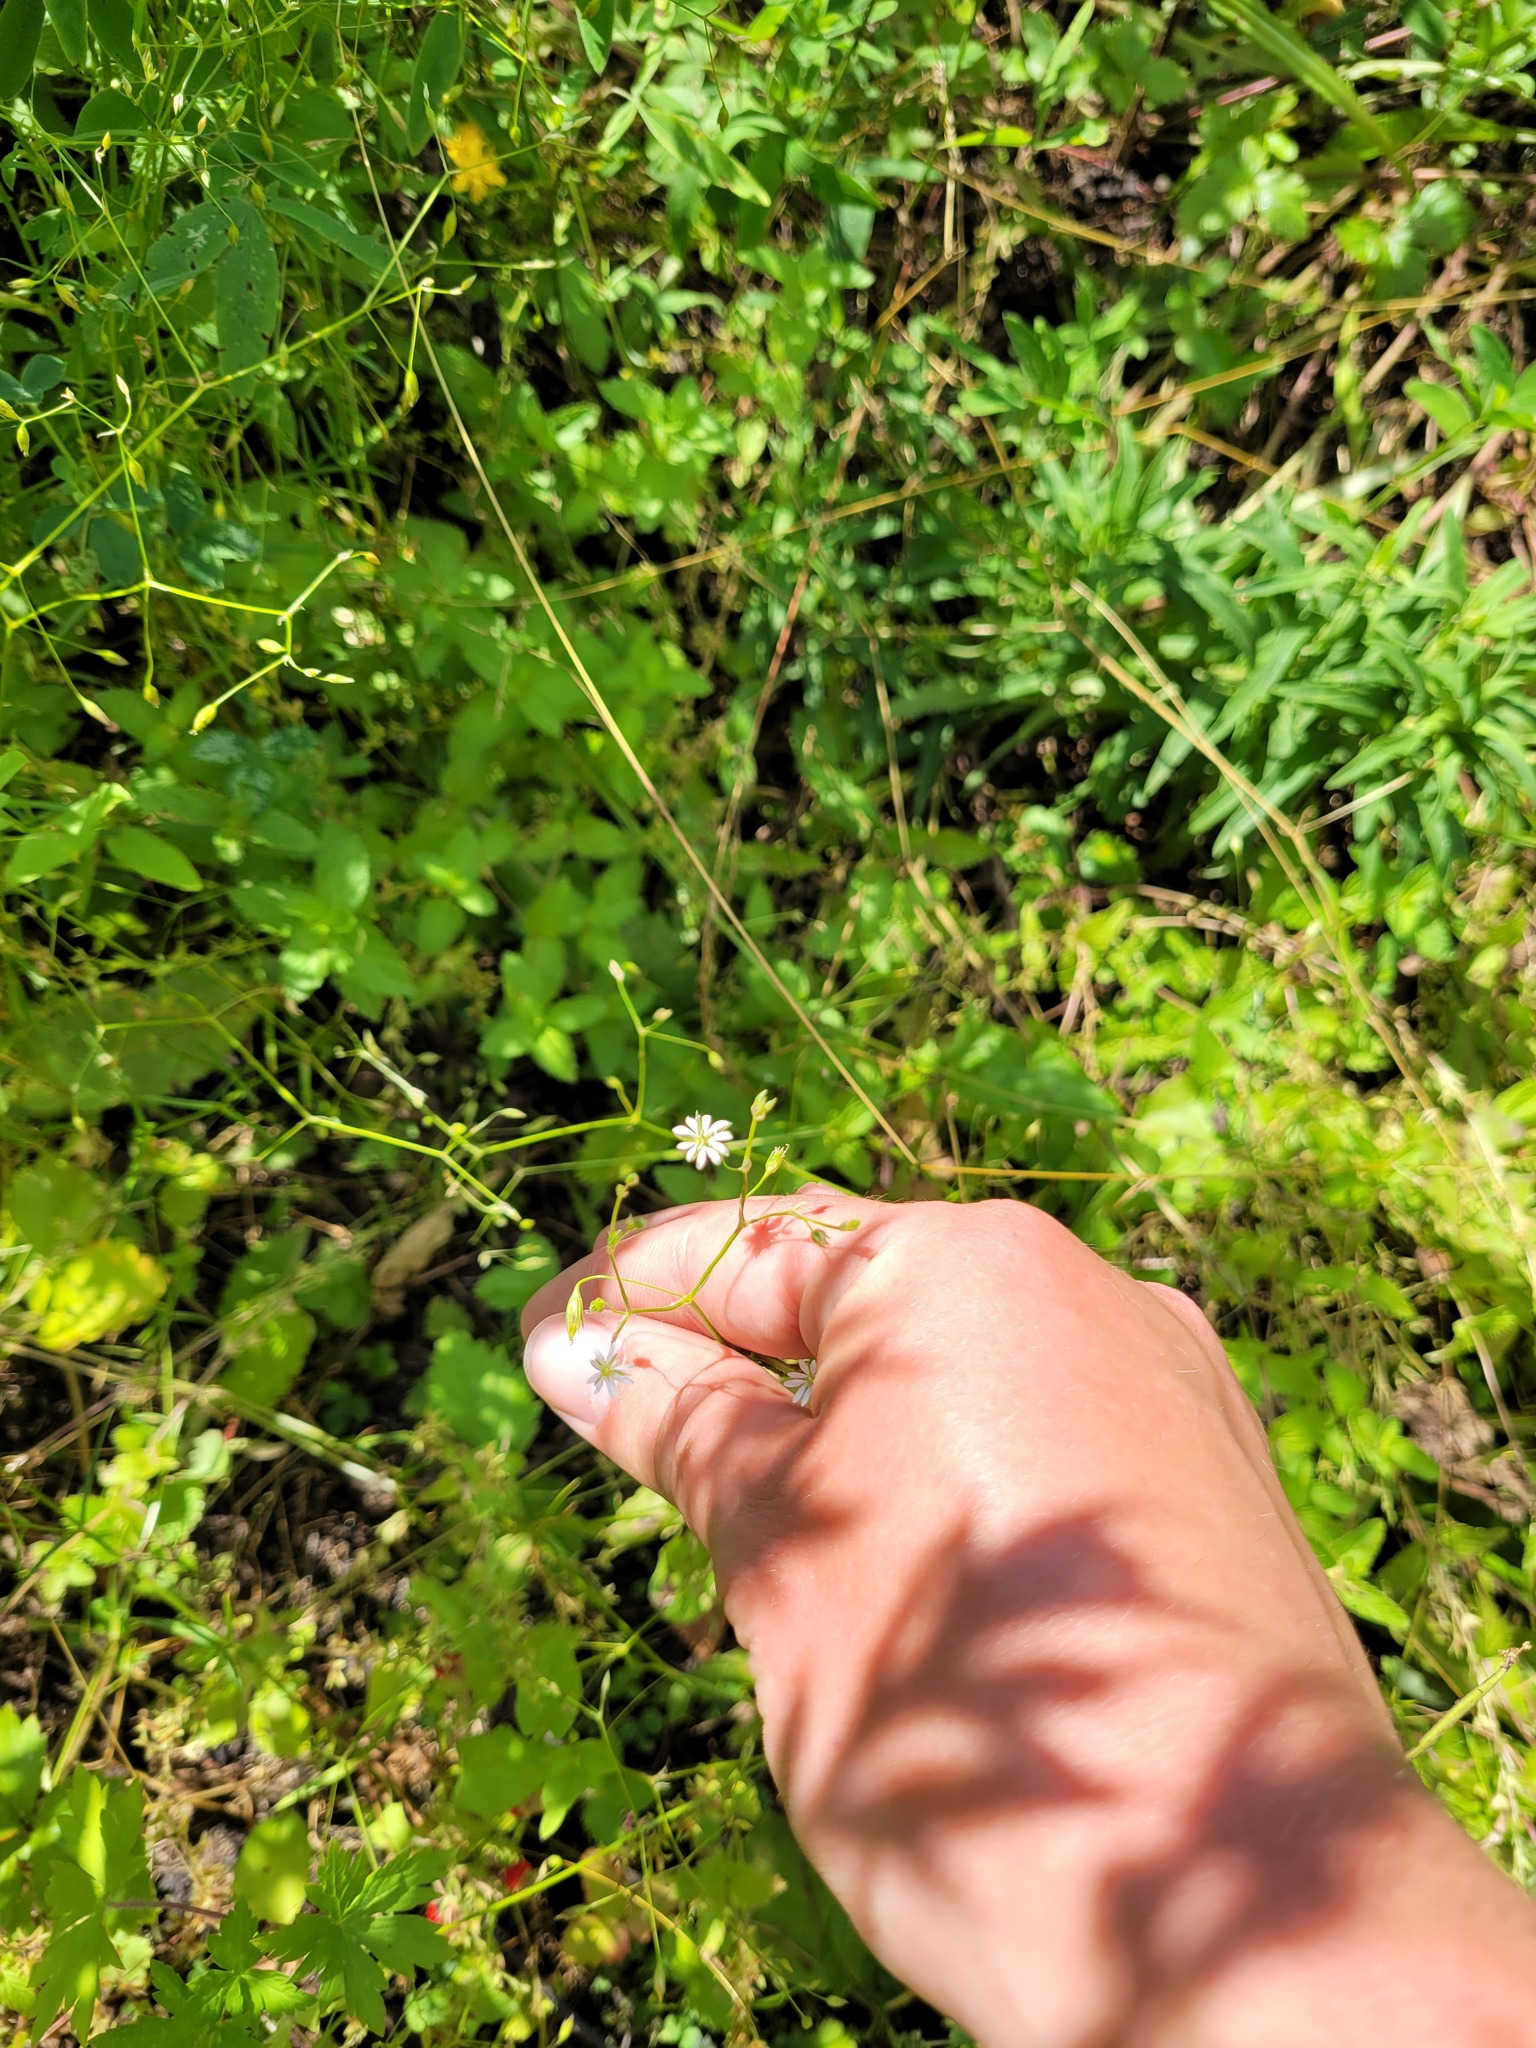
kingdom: Plantae
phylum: Tracheophyta
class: Magnoliopsida
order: Caryophyllales
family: Caryophyllaceae
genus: Stellaria
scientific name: Stellaria graminea
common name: Grass-like starwort
